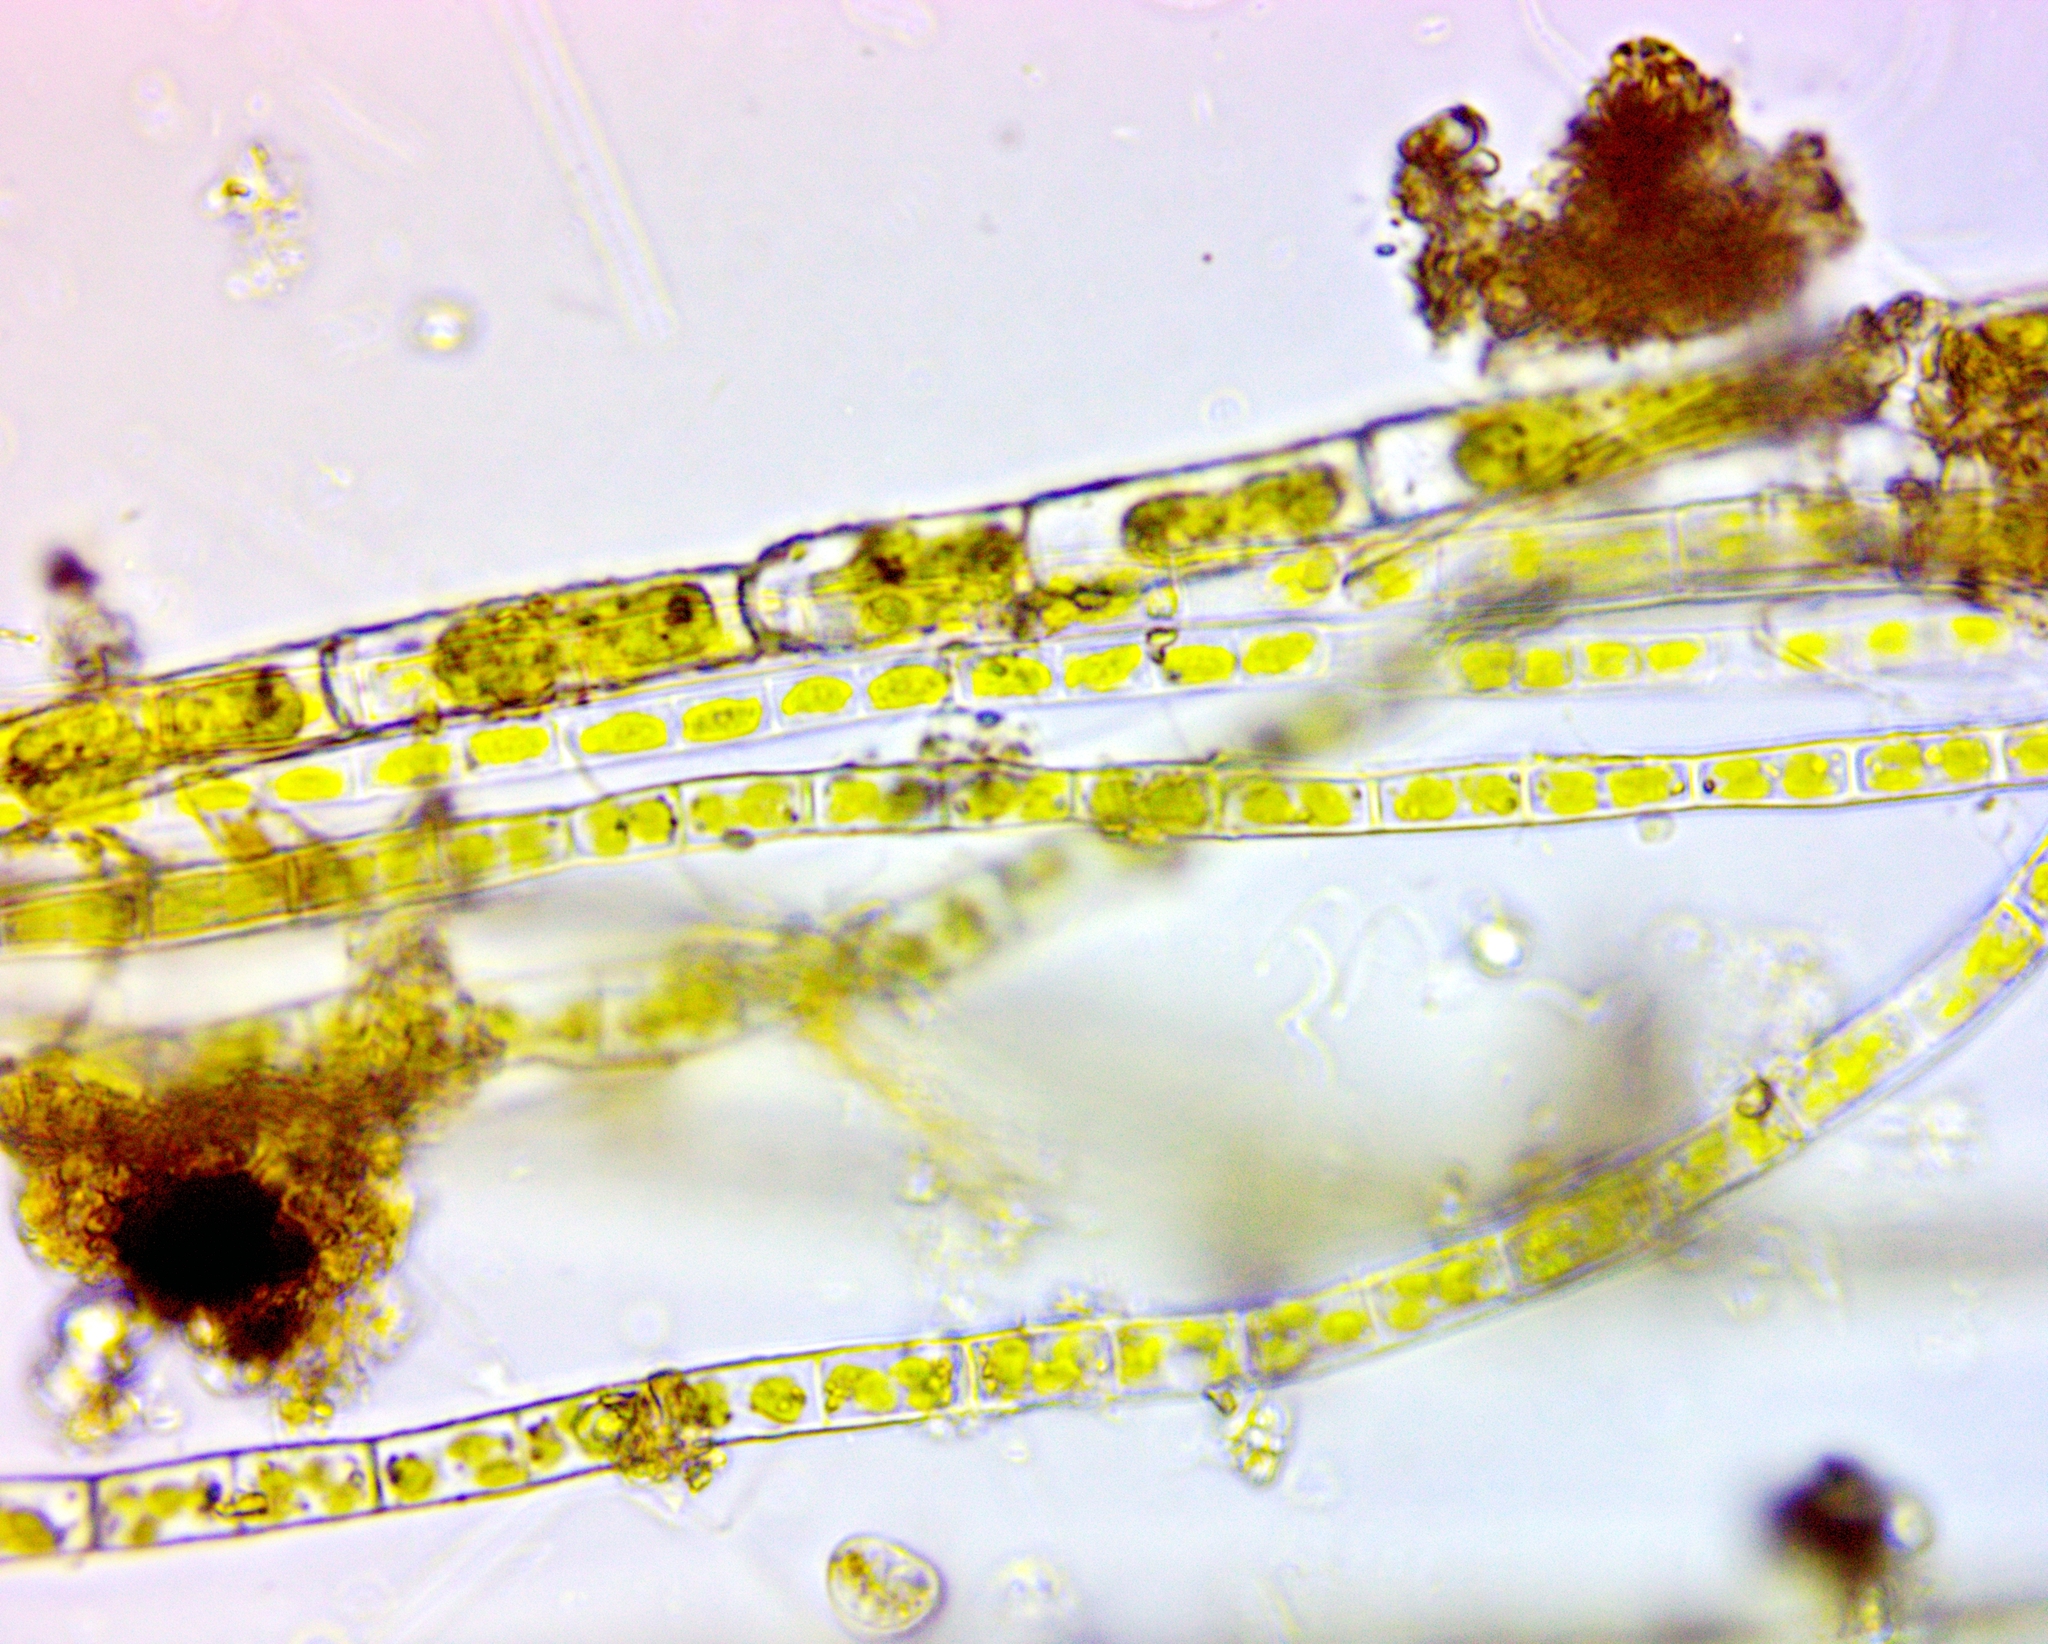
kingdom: Plantae
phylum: Chlorophyta
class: Chlorophyceae
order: Oedogoniales
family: Oedogoniaceae
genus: Oedogonium
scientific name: Oedogonium
